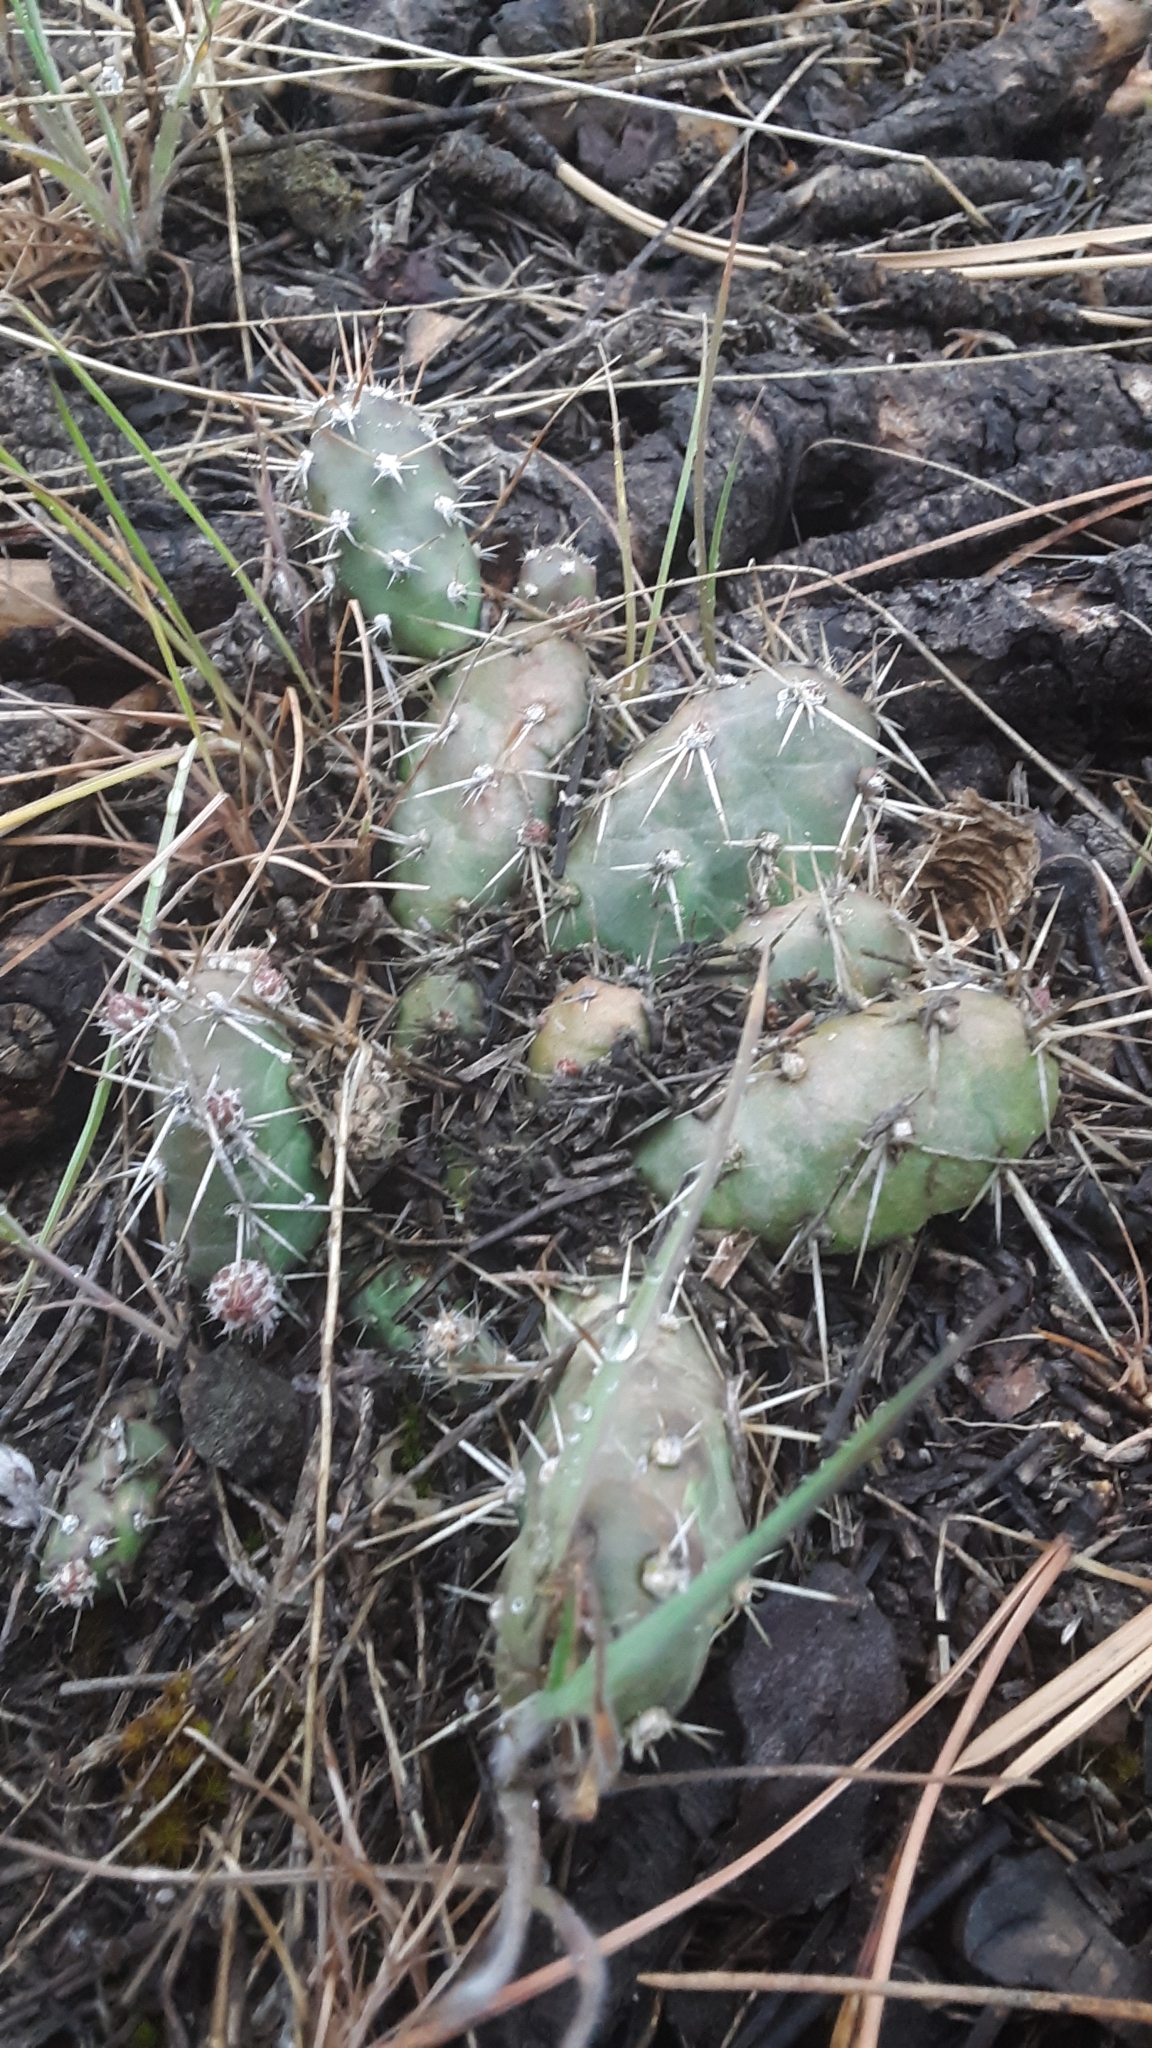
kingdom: Plantae
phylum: Tracheophyta
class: Magnoliopsida
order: Caryophyllales
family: Cactaceae
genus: Opuntia
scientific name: Opuntia fragilis
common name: Brittle cactus
